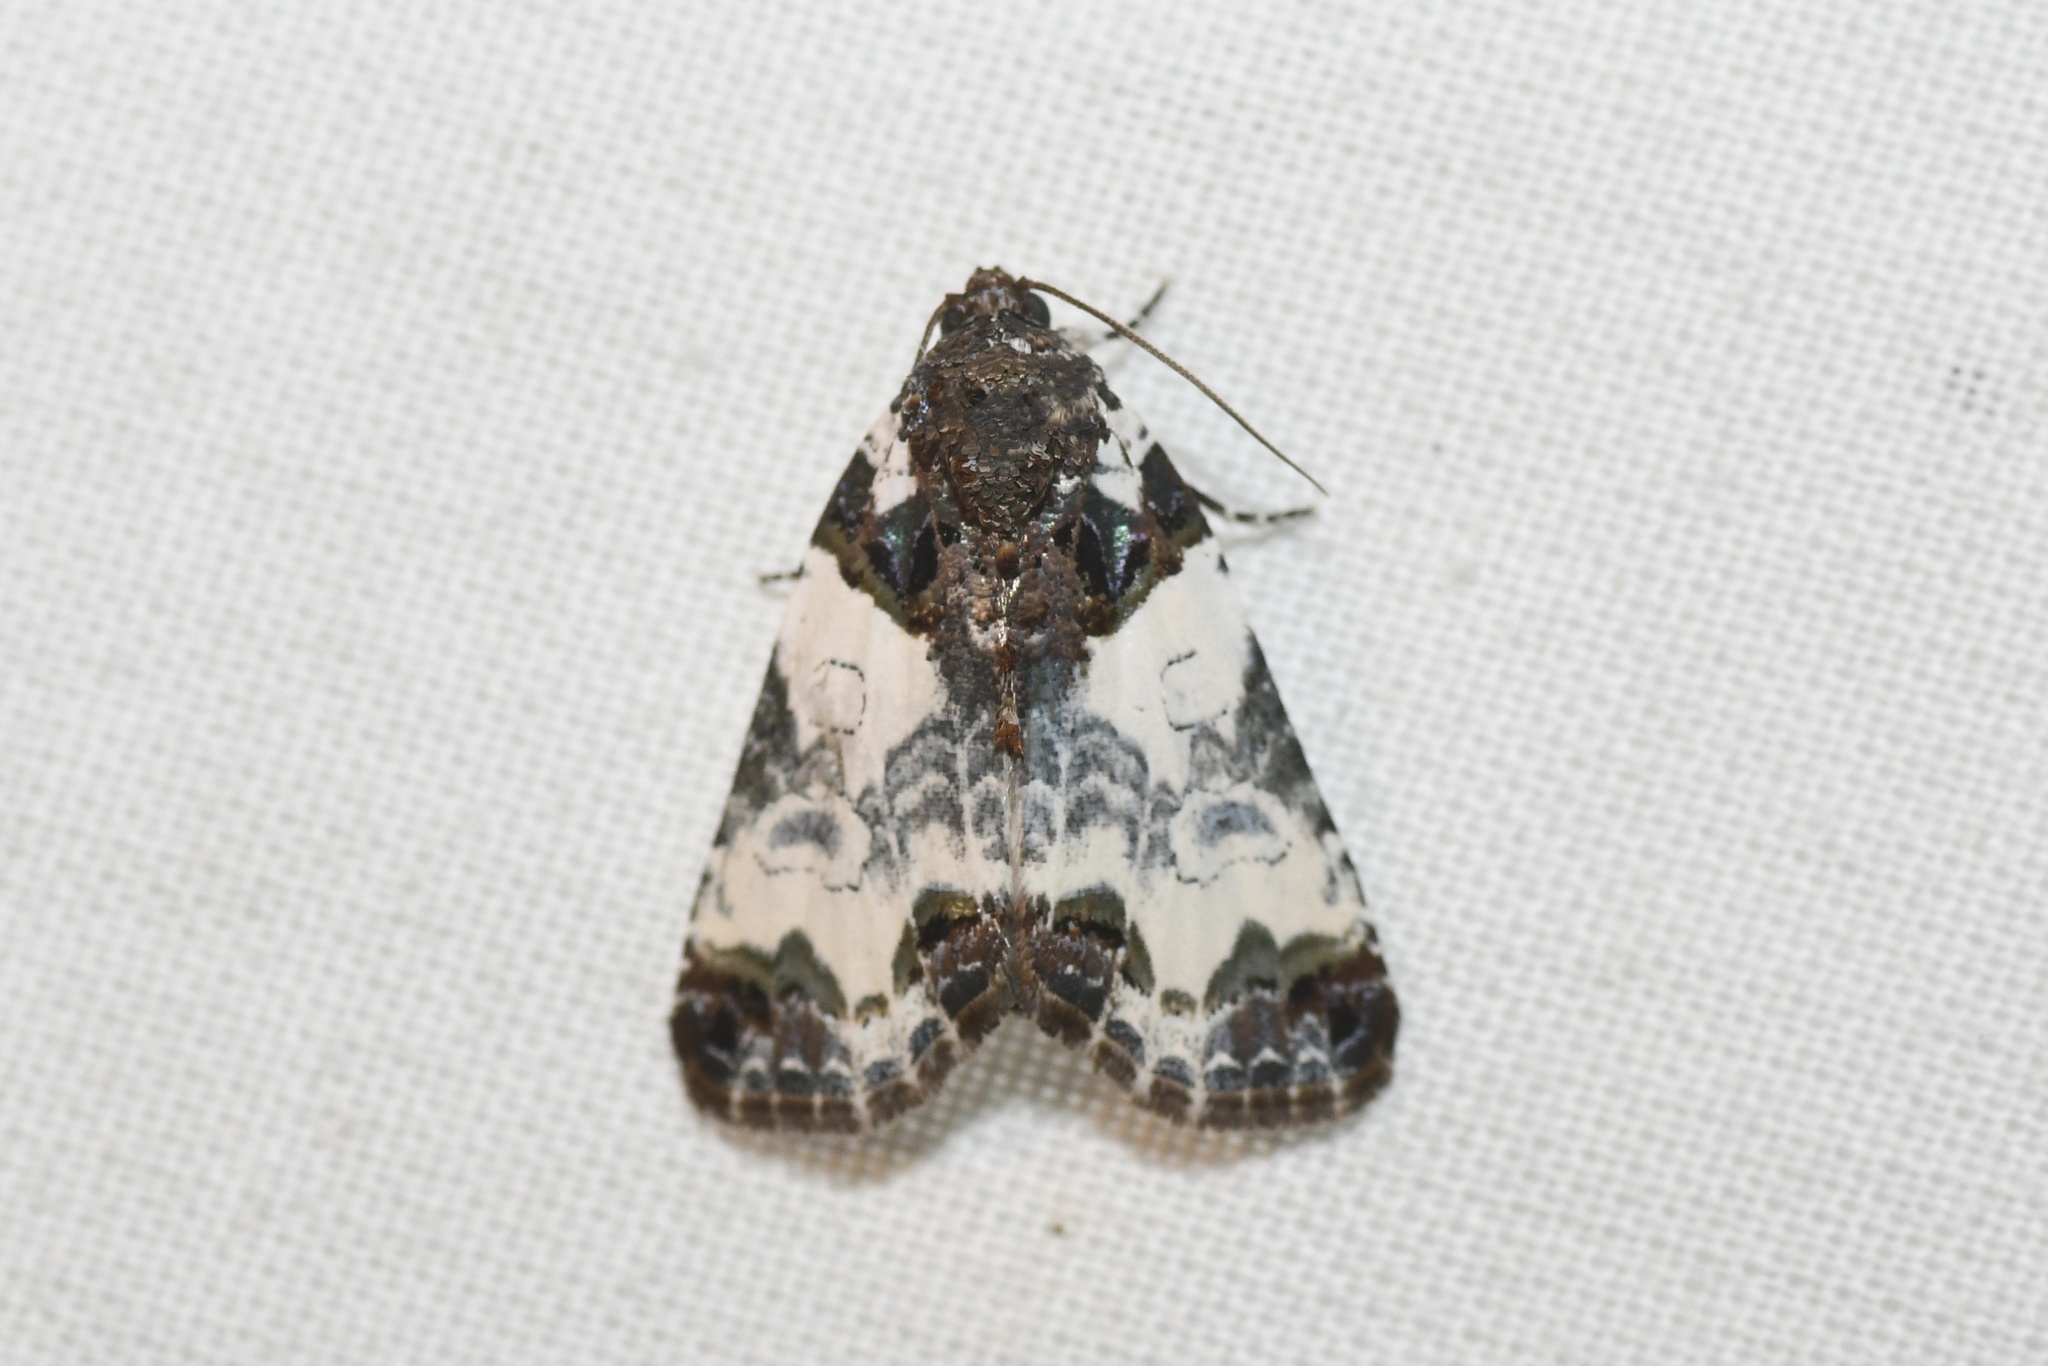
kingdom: Animalia
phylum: Arthropoda
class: Insecta
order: Lepidoptera
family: Noctuidae
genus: Cerma
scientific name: Cerma cerintha
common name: Tufted bird-dropping moth
